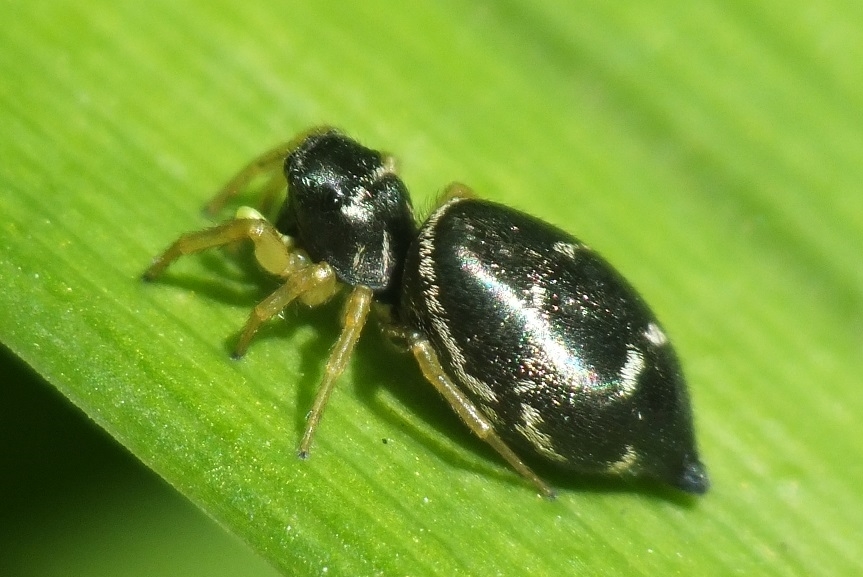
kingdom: Animalia
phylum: Arthropoda
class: Arachnida
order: Araneae
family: Salticidae
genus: Heliophanus
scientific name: Heliophanus cupreus
